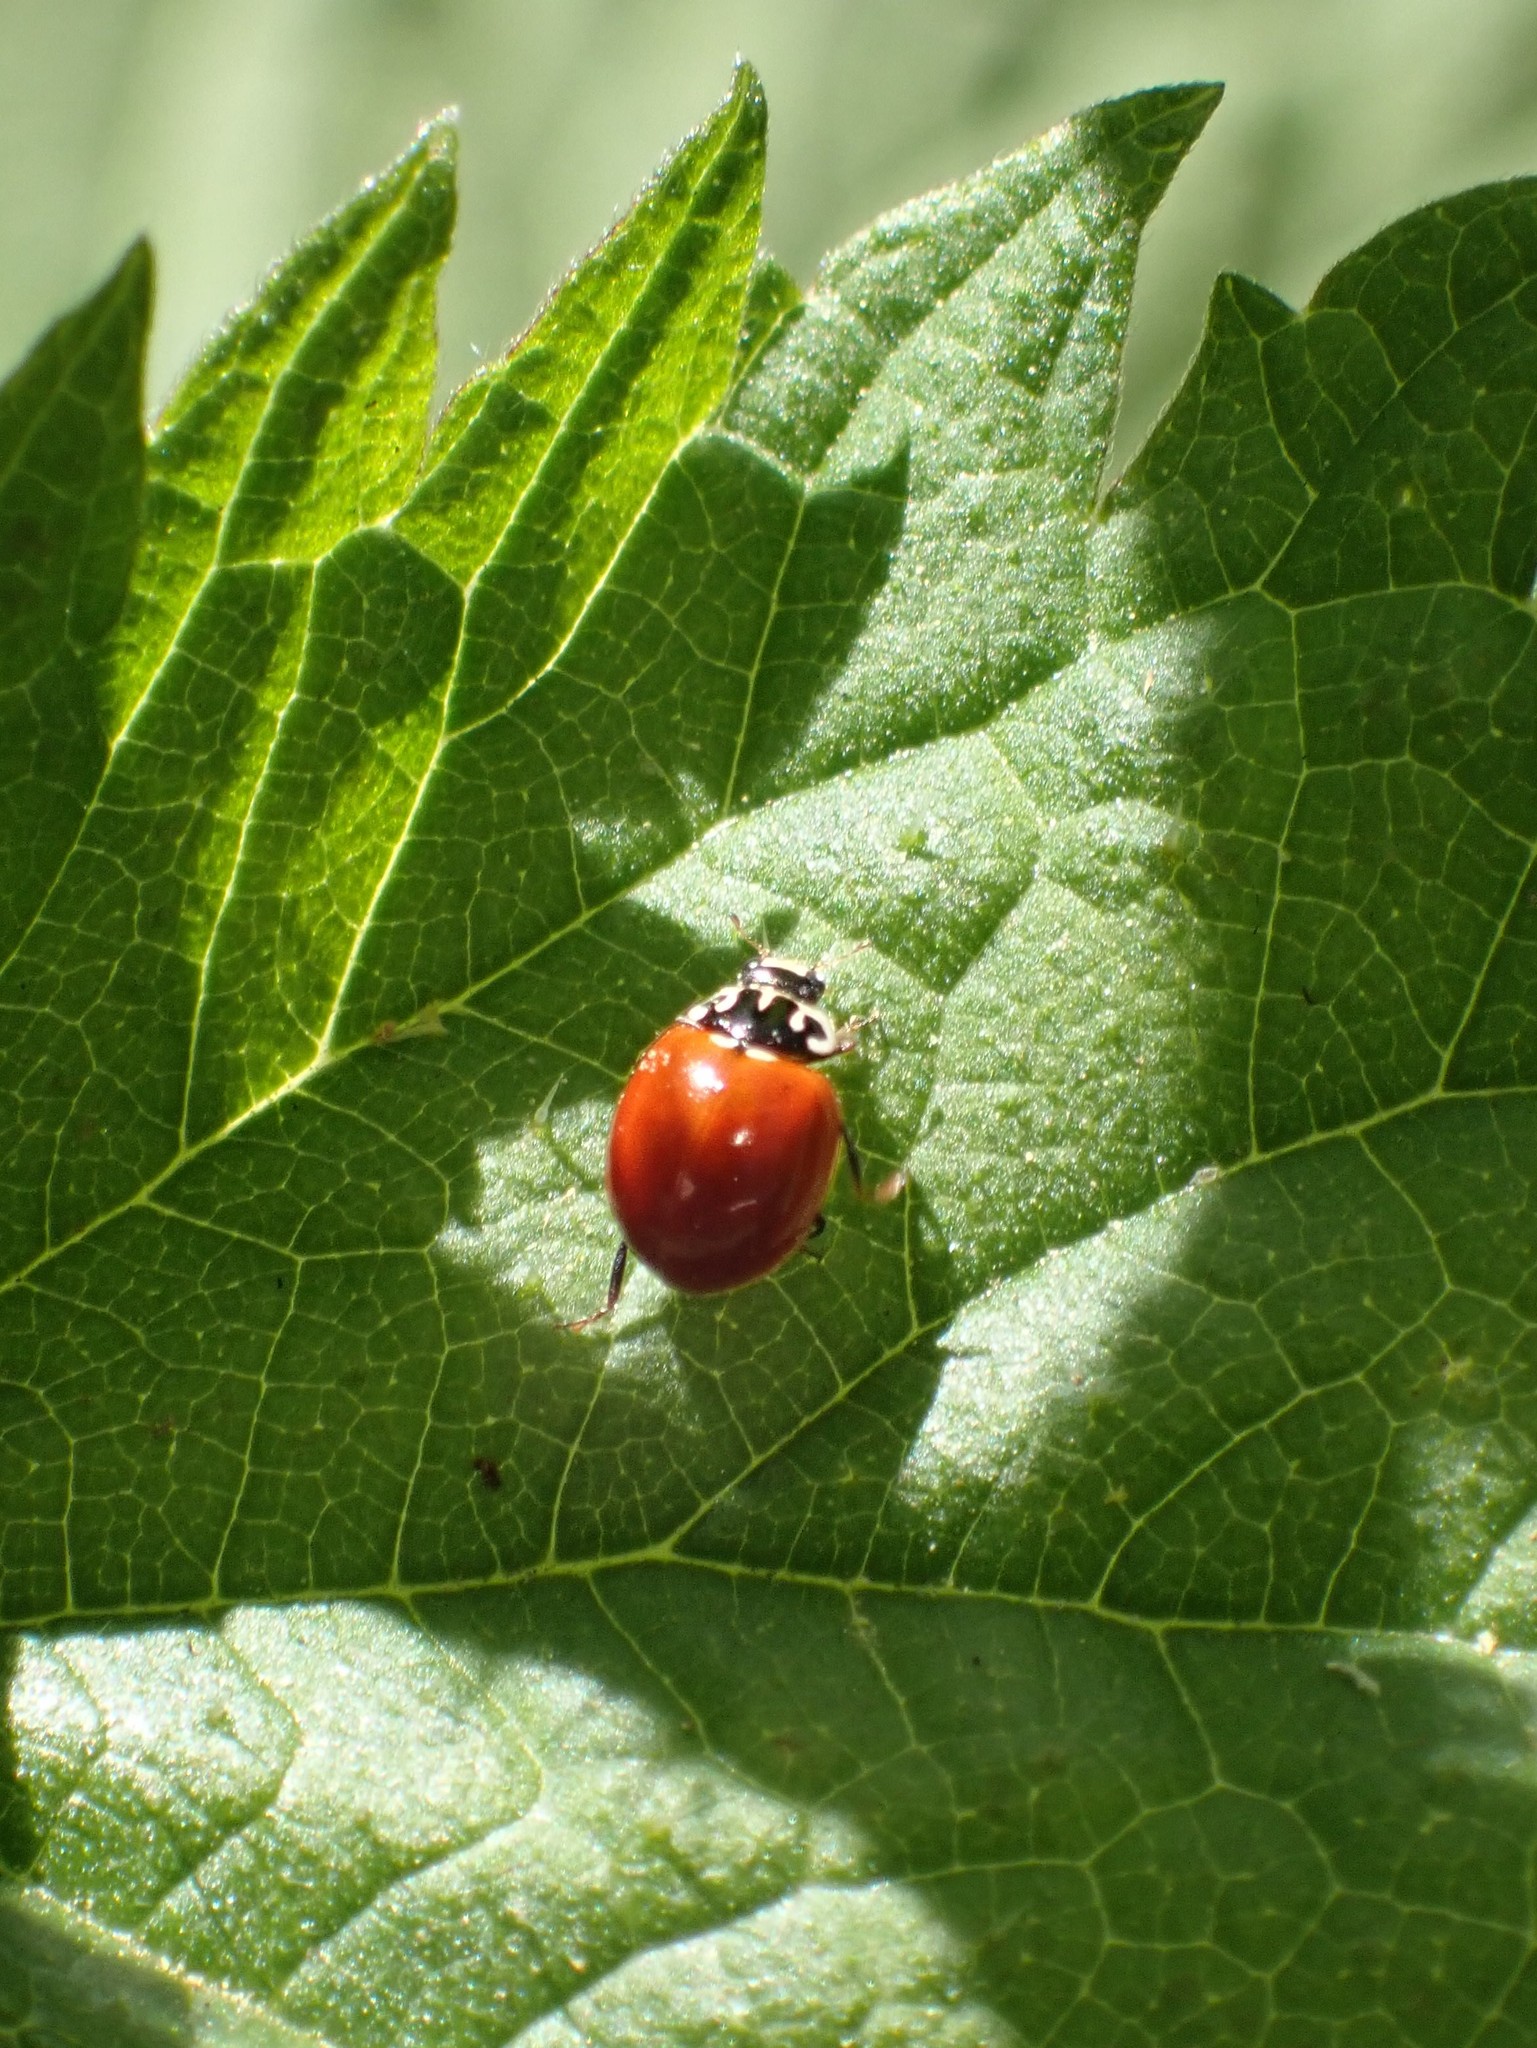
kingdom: Animalia
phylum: Arthropoda
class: Insecta
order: Coleoptera
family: Coccinellidae
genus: Cycloneda
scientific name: Cycloneda polita
